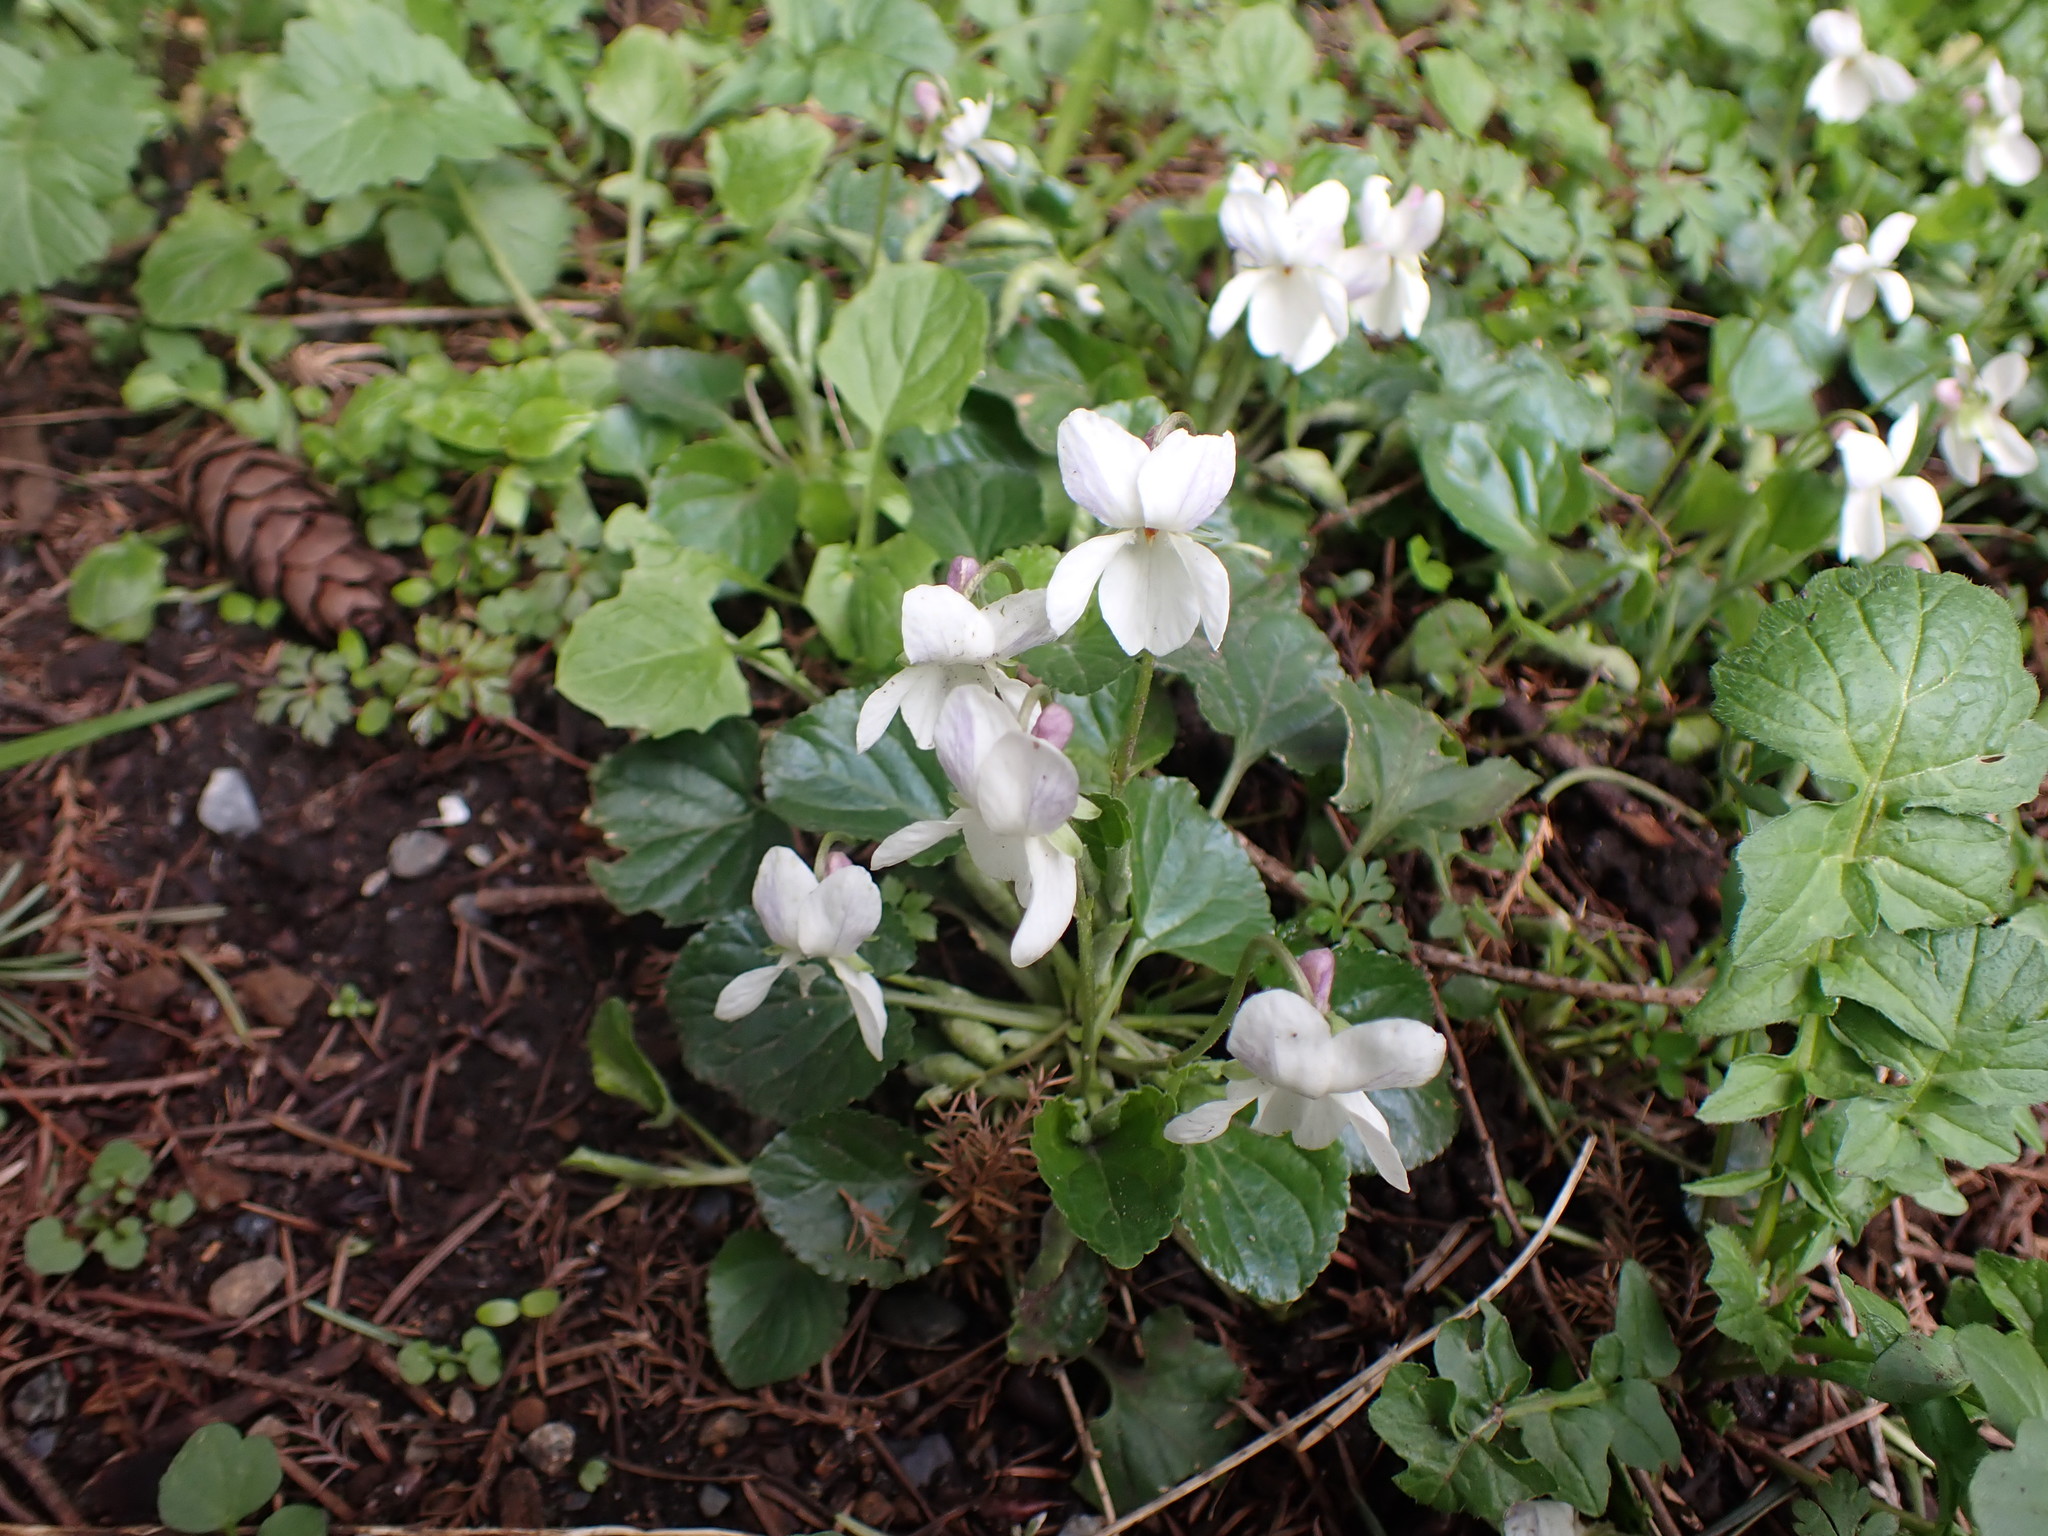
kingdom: Plantae
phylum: Tracheophyta
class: Magnoliopsida
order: Malpighiales
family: Violaceae
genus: Viola
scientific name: Viola odorata
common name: Sweet violet
